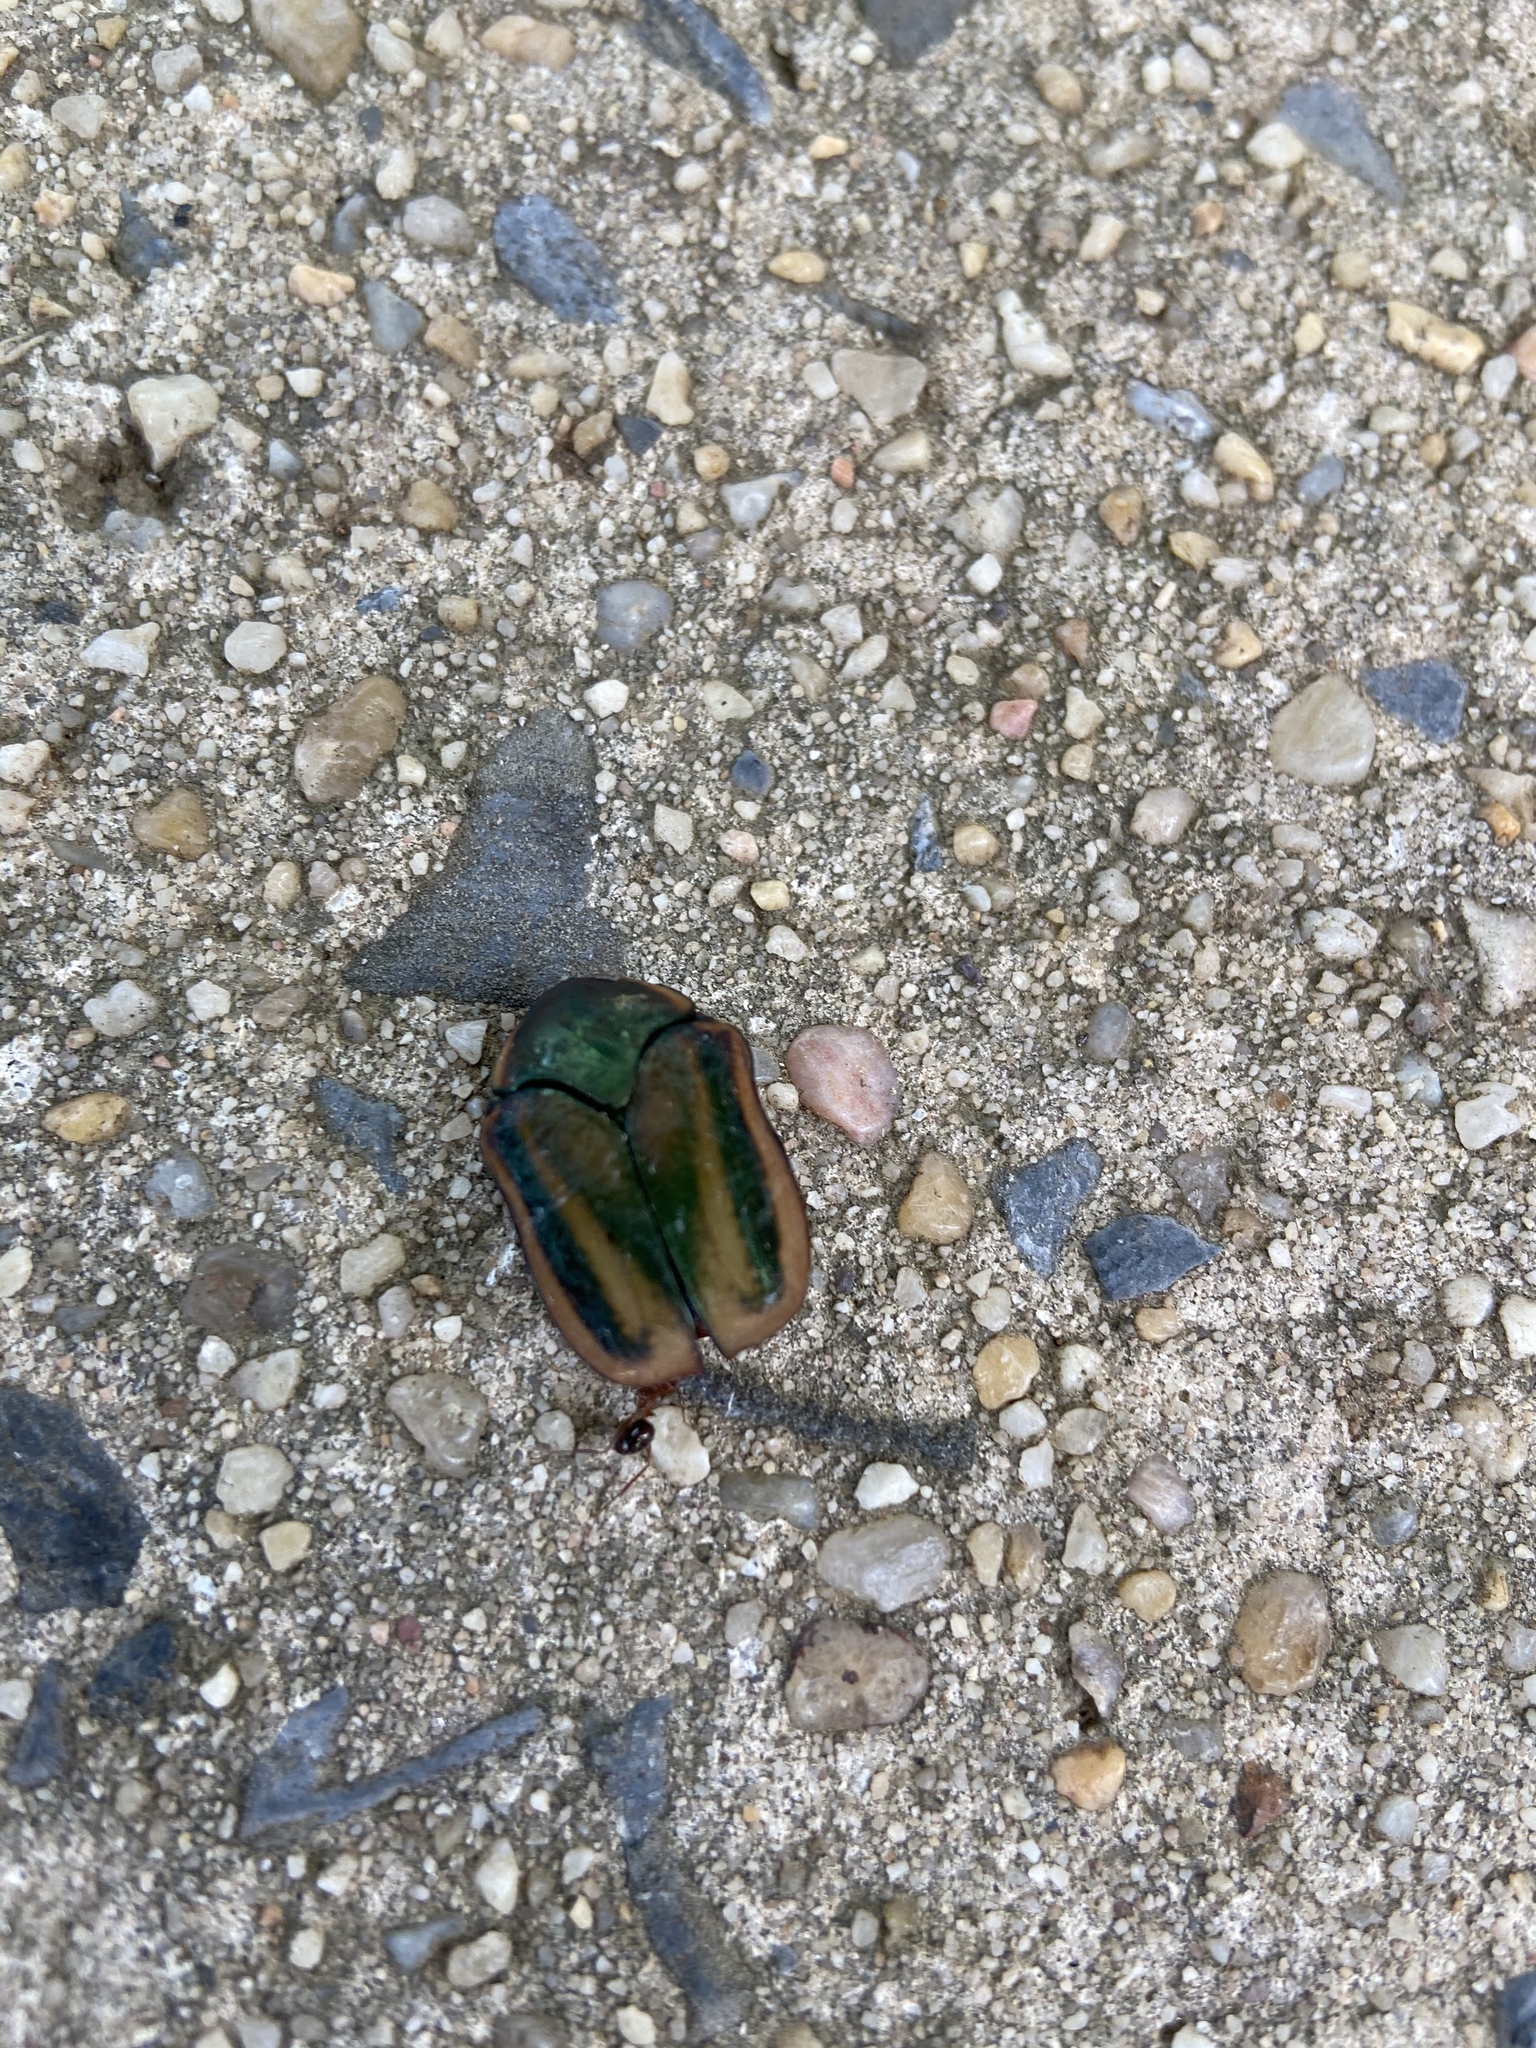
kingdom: Animalia
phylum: Arthropoda
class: Insecta
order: Coleoptera
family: Scarabaeidae
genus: Cotinis
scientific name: Cotinis nitida
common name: Common green june beetle
